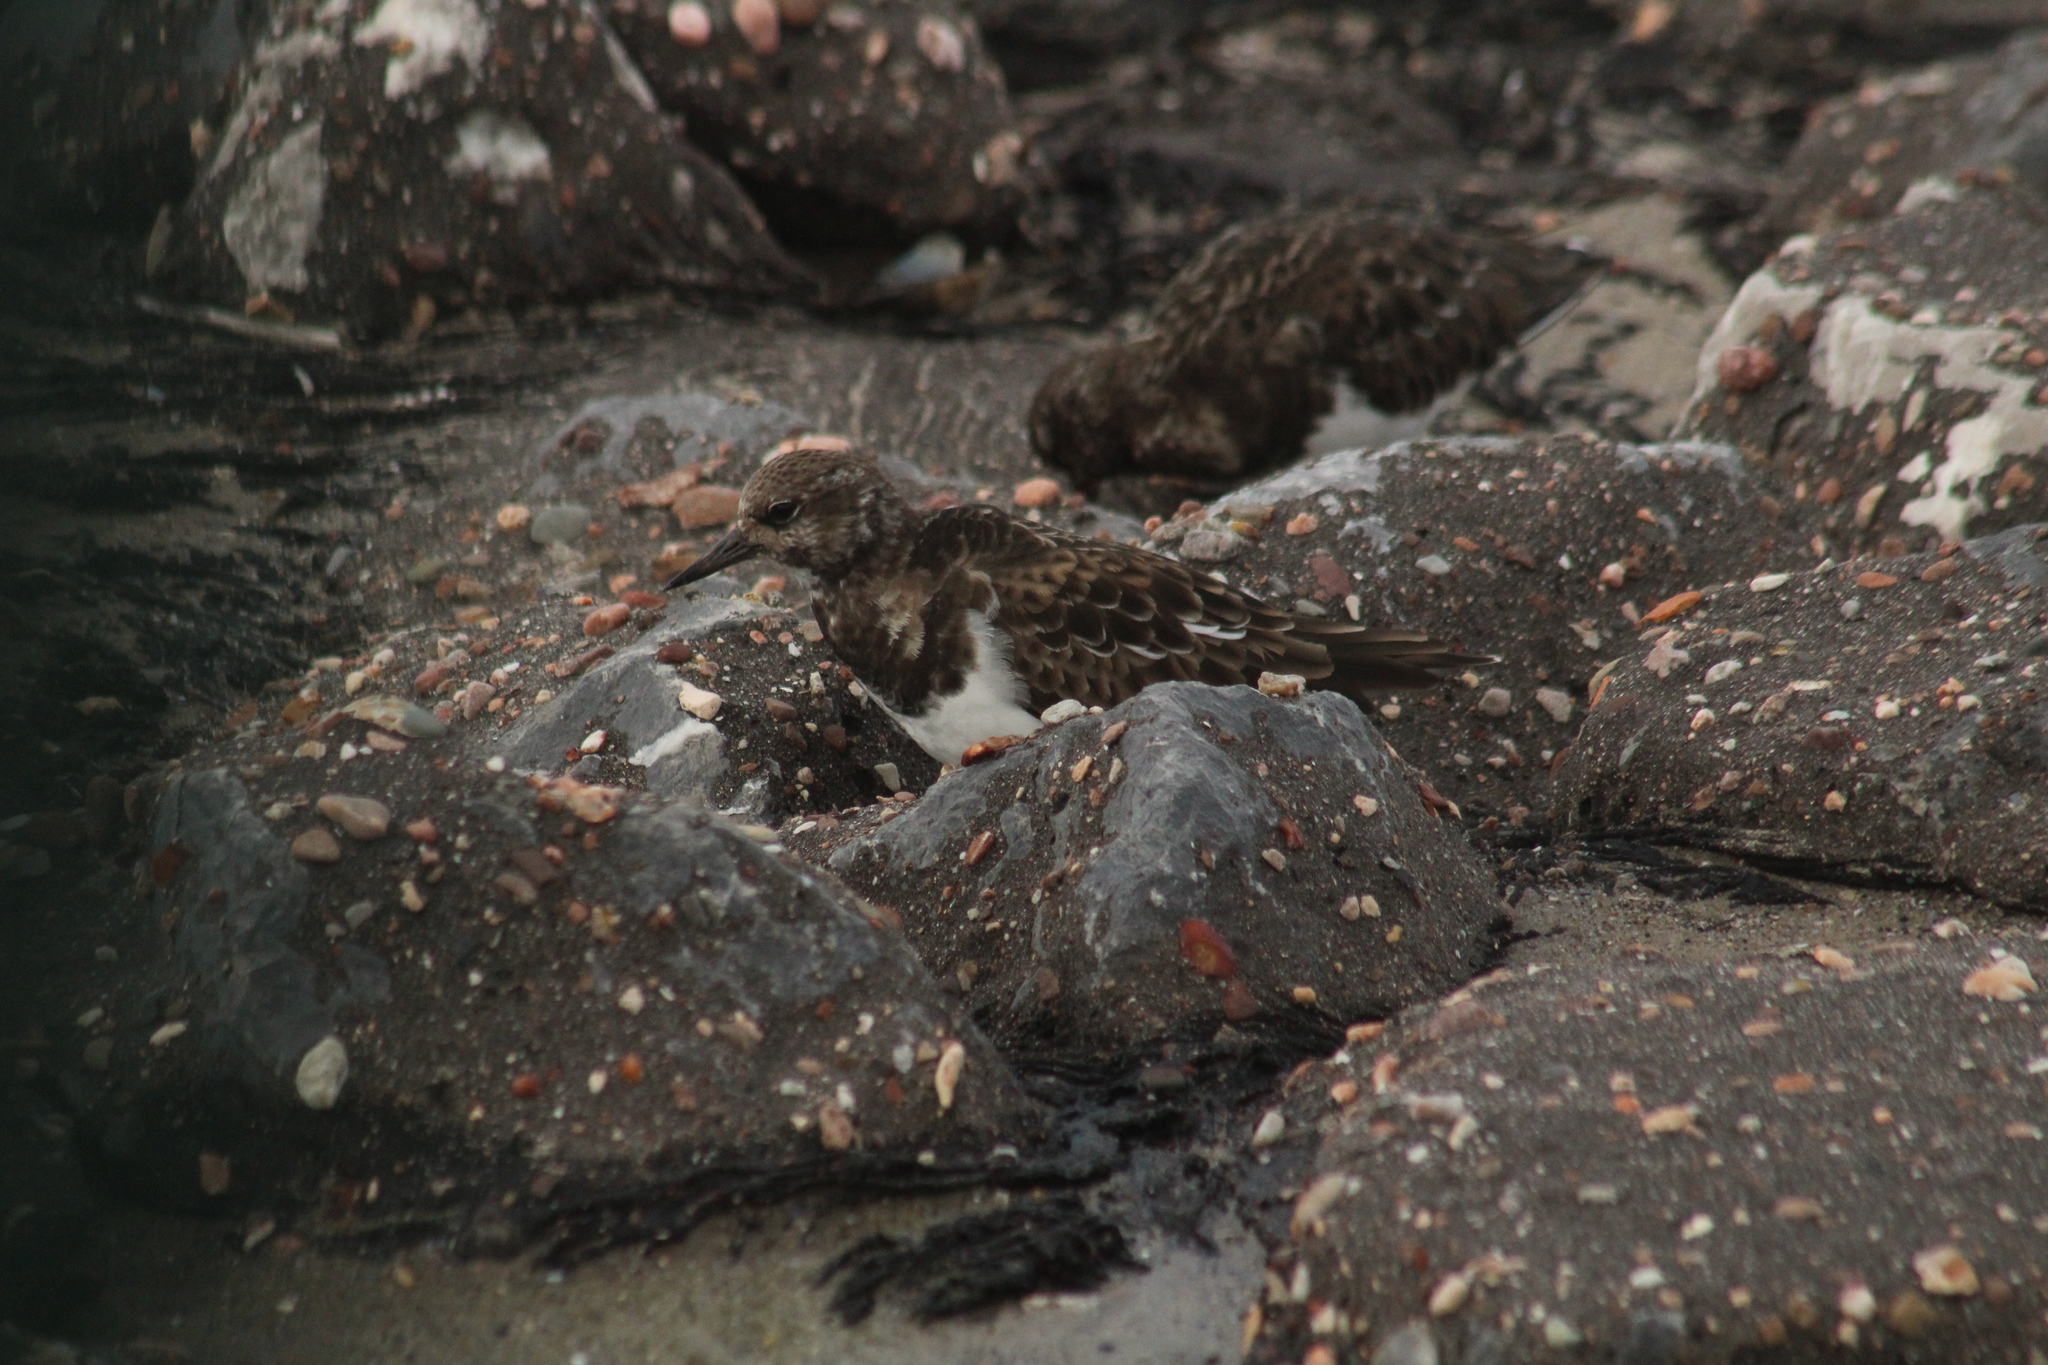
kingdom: Animalia
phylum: Chordata
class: Aves
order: Charadriiformes
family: Scolopacidae
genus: Arenaria
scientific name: Arenaria interpres
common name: Ruddy turnstone
